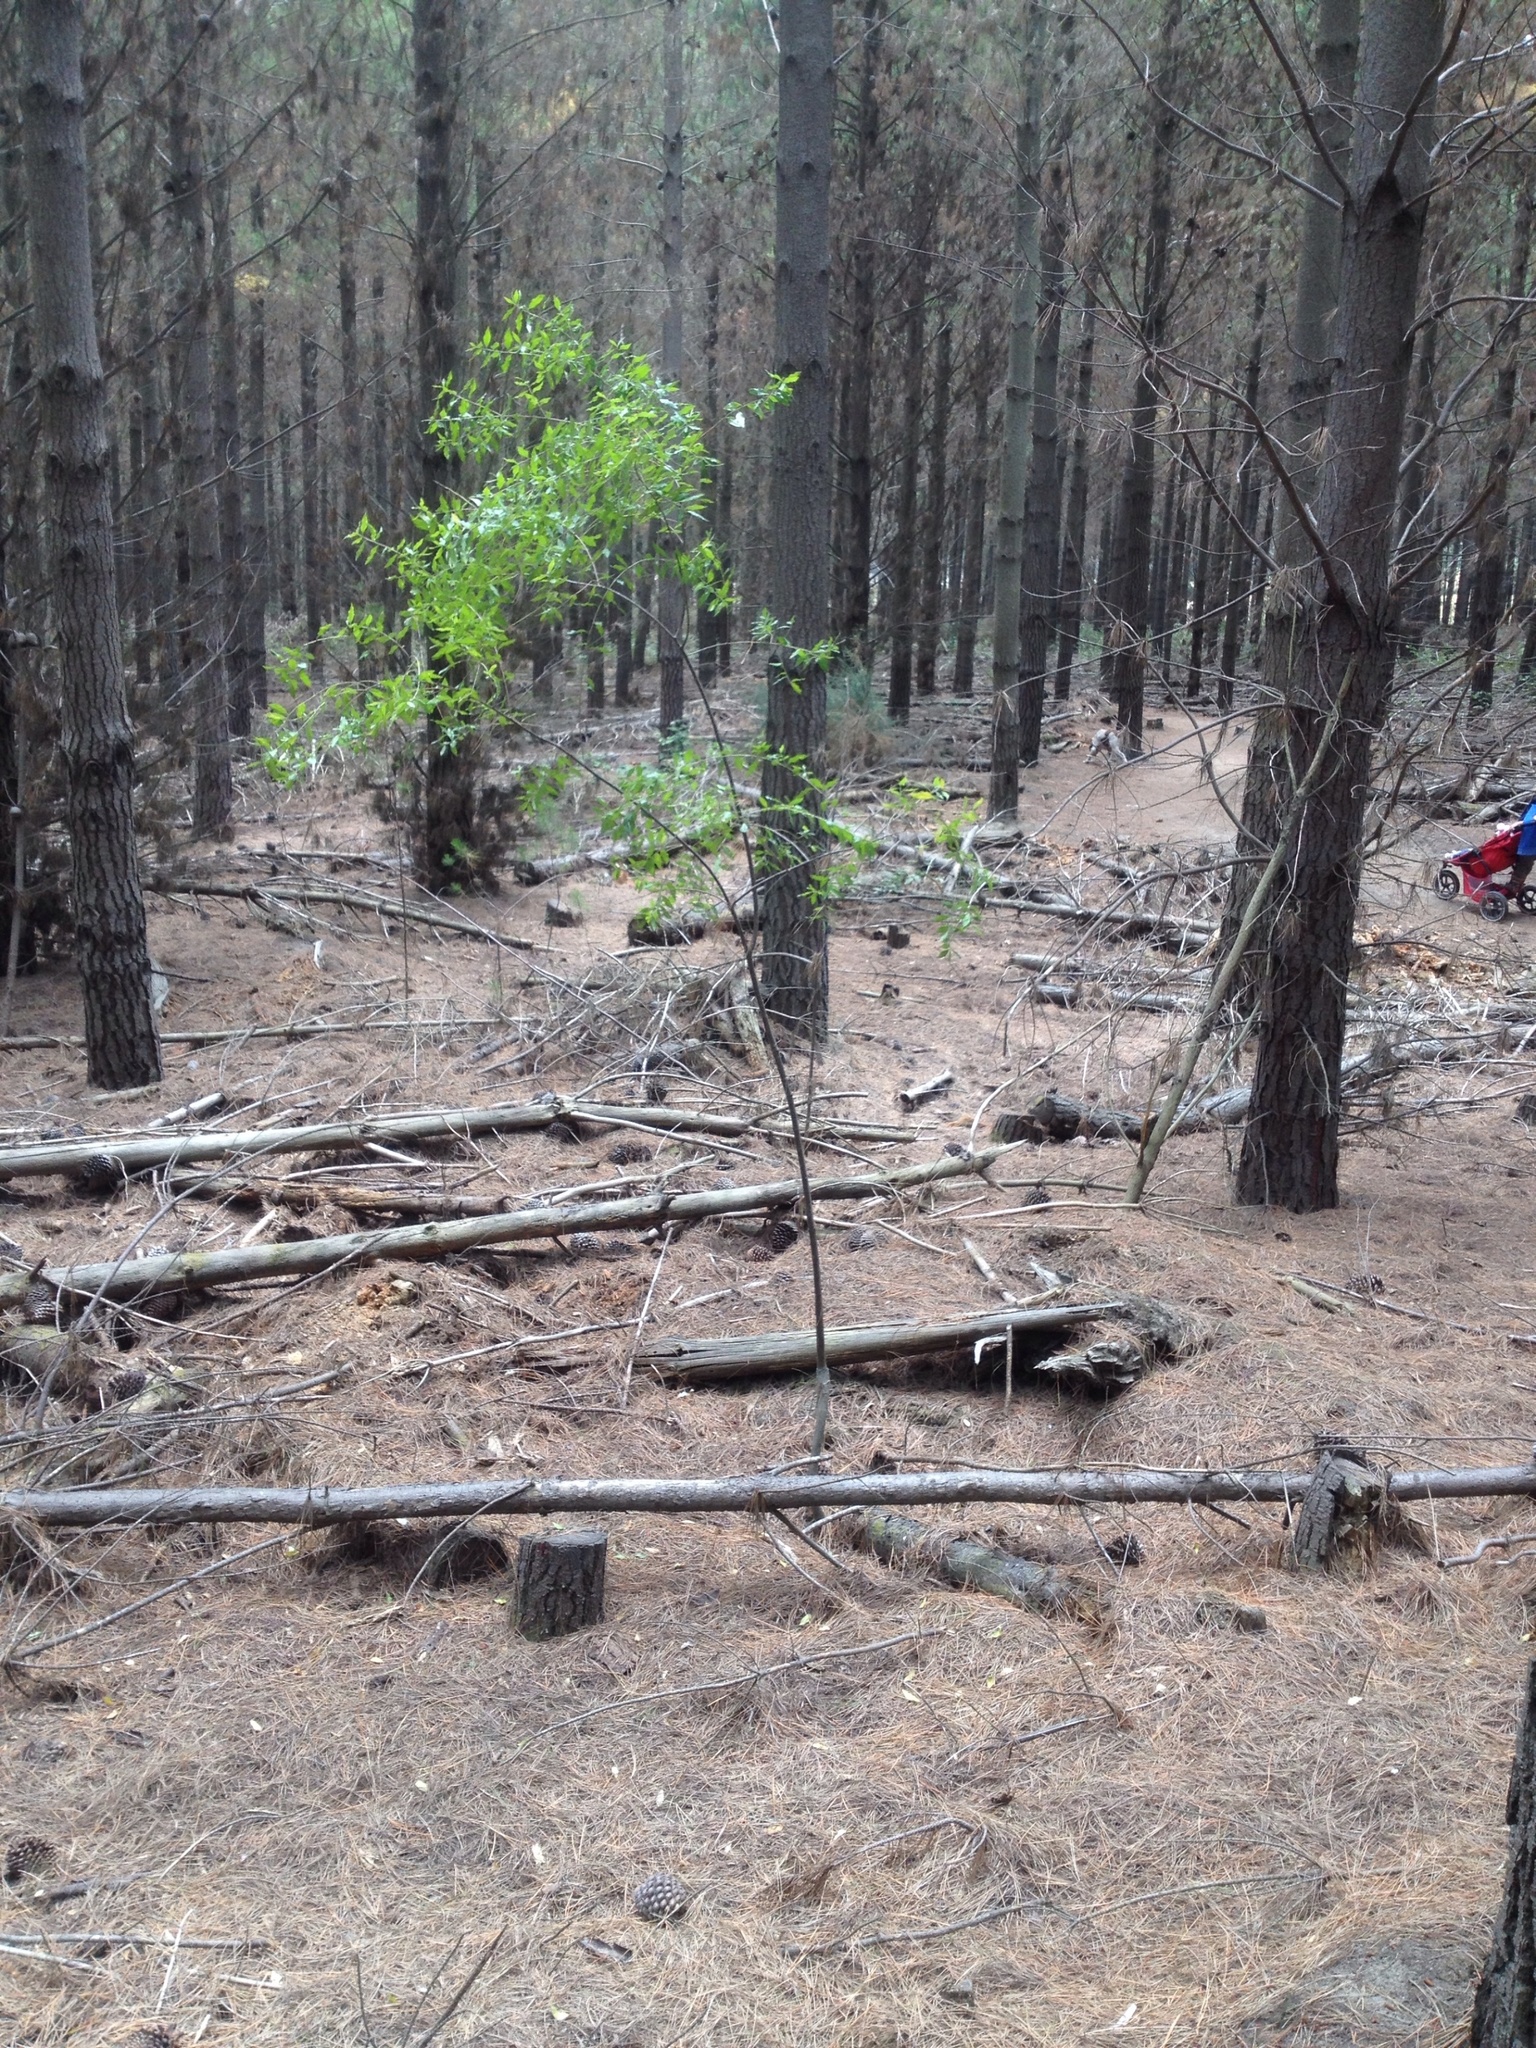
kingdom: Plantae
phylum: Tracheophyta
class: Magnoliopsida
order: Celastrales
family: Celastraceae
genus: Maytenus
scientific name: Maytenus boaria
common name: Mayten
